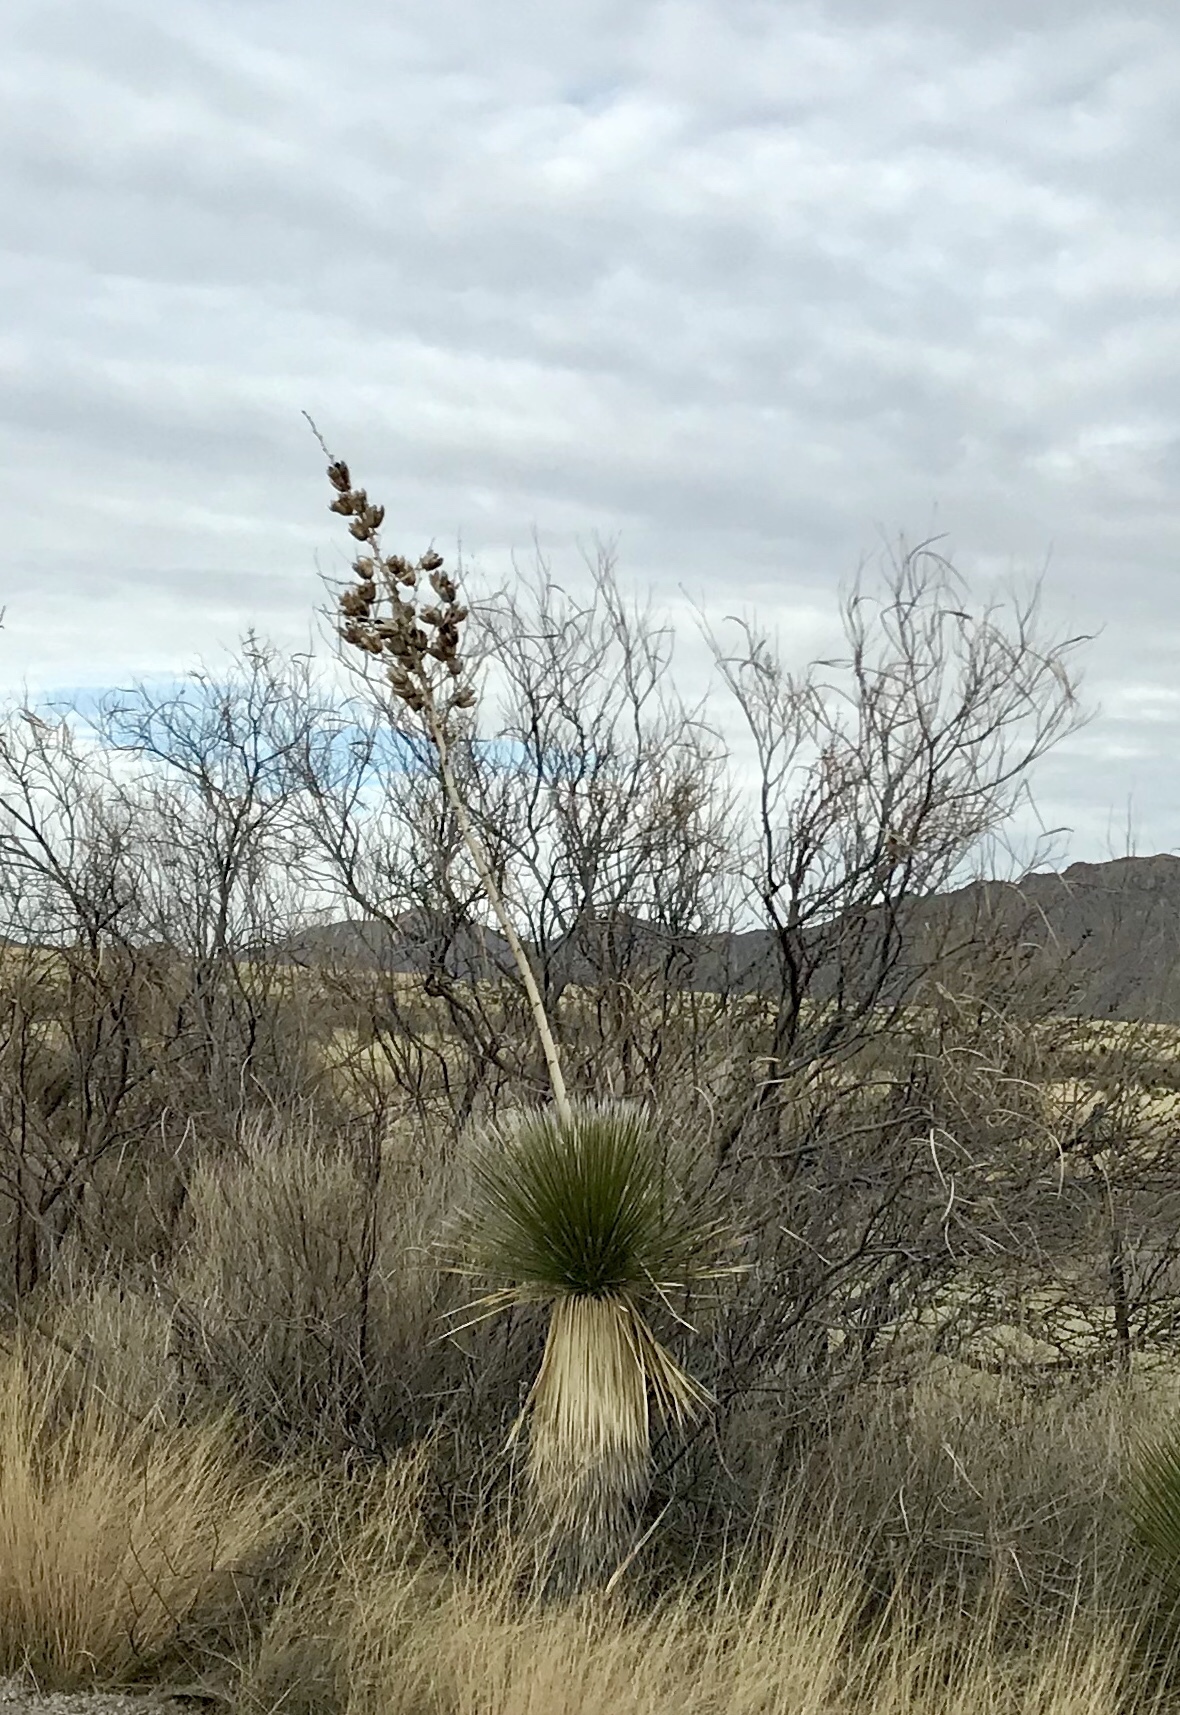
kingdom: Plantae
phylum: Tracheophyta
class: Liliopsida
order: Asparagales
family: Asparagaceae
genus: Yucca
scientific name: Yucca elata
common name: Palmella
